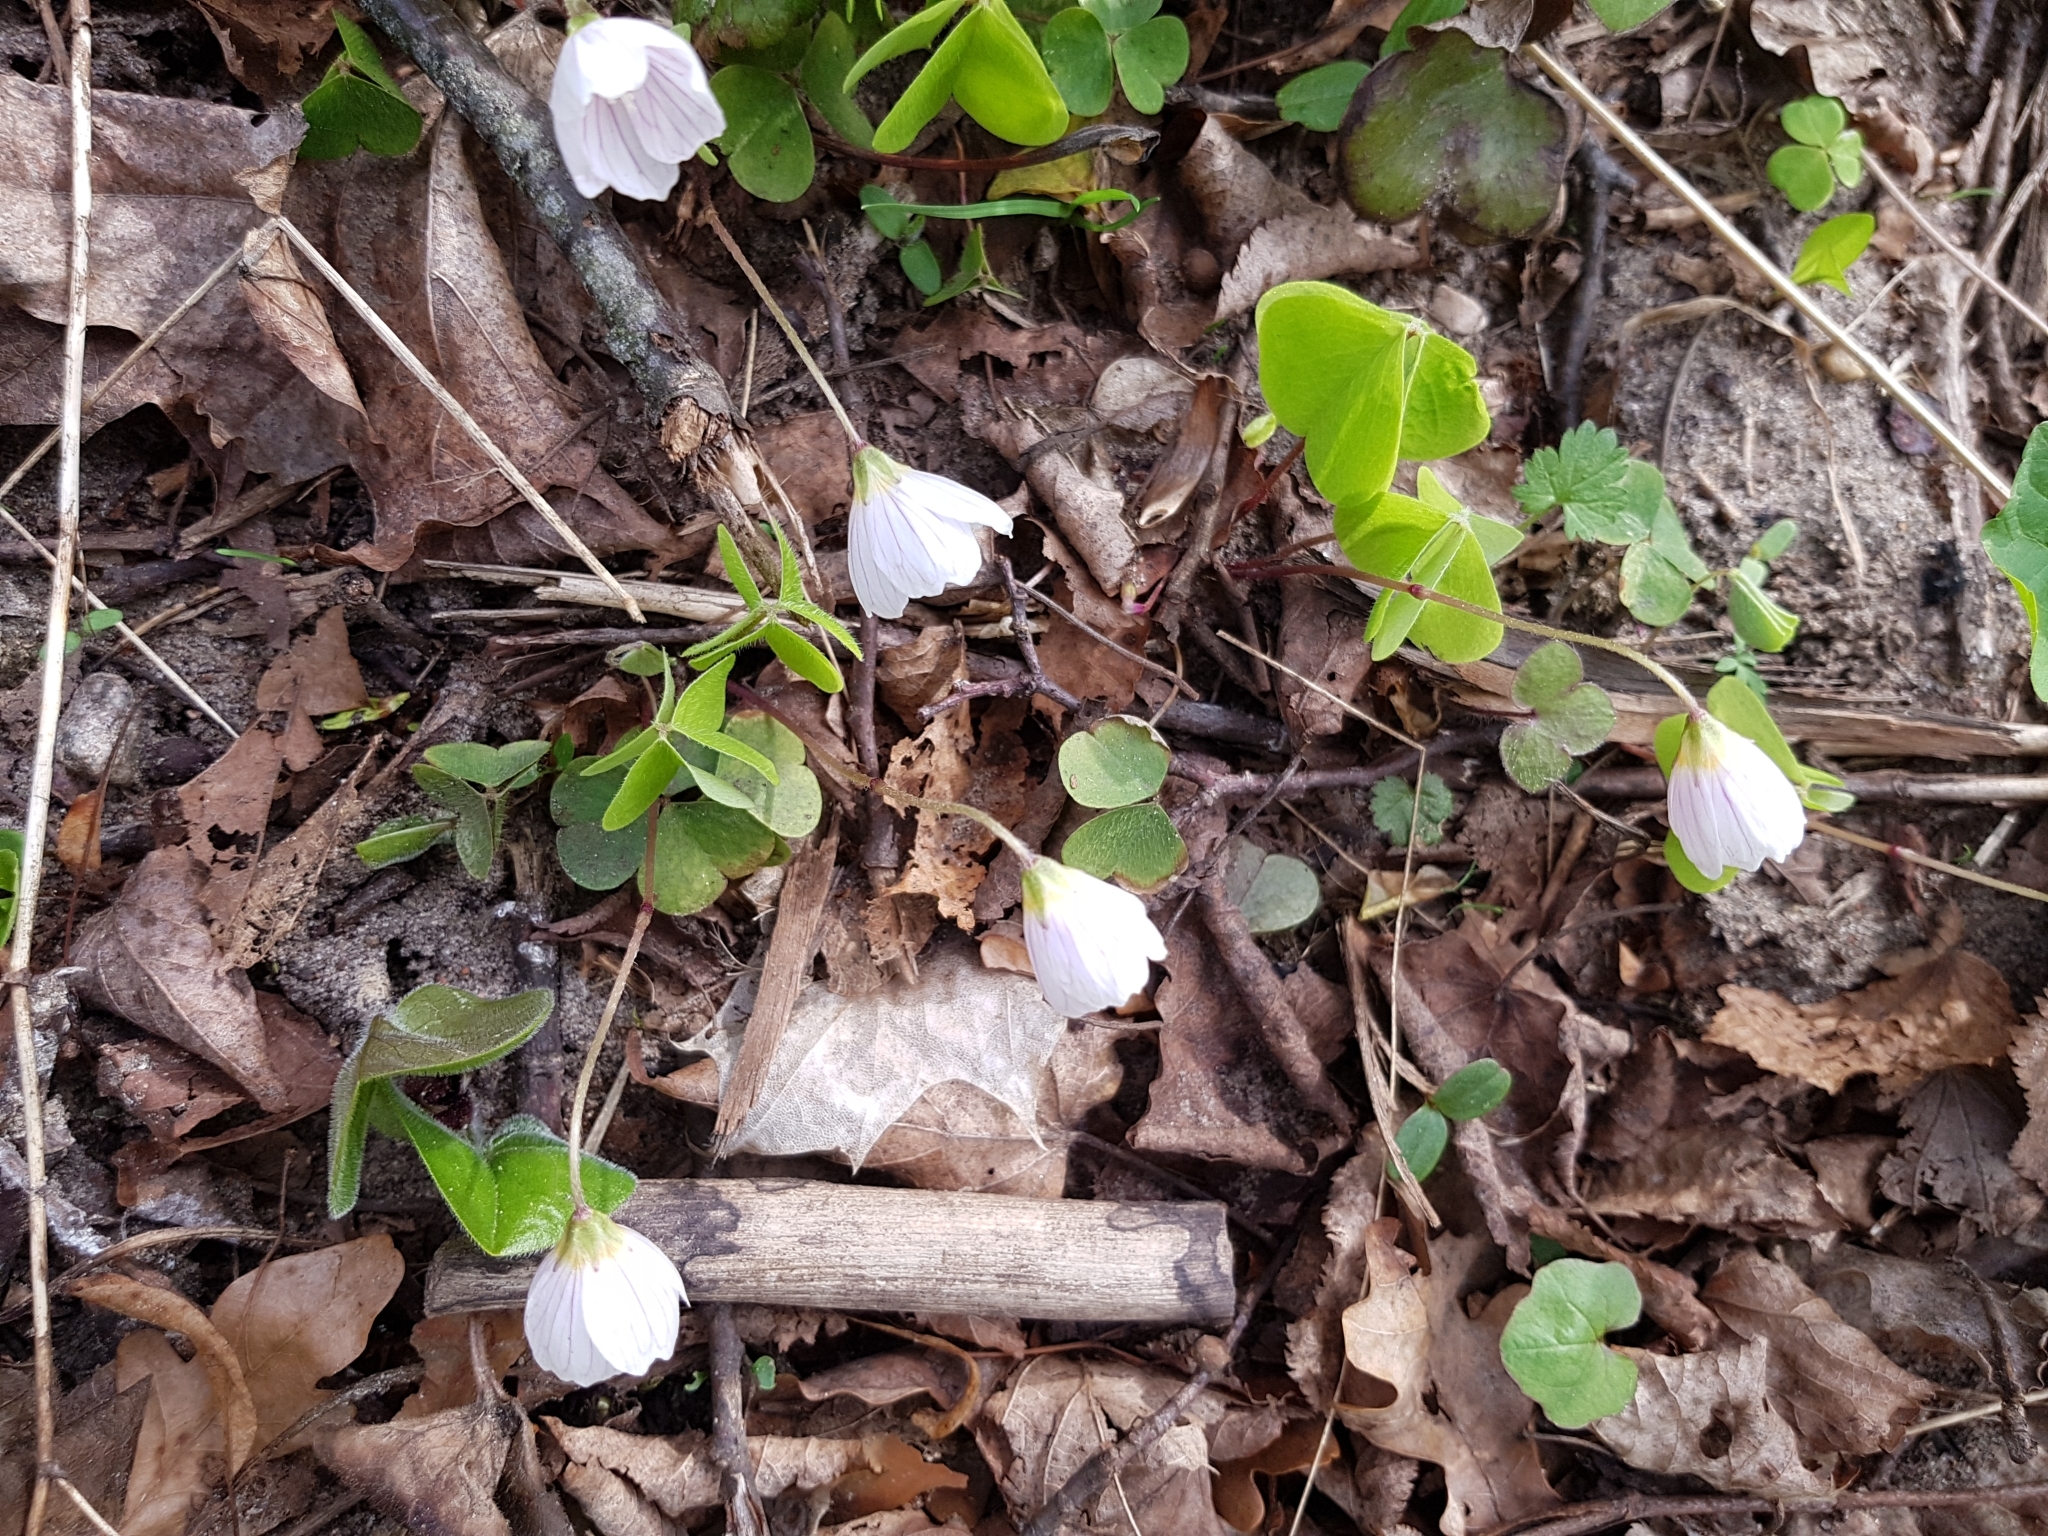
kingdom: Plantae
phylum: Tracheophyta
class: Magnoliopsida
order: Oxalidales
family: Oxalidaceae
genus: Oxalis
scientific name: Oxalis acetosella
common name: Wood-sorrel
